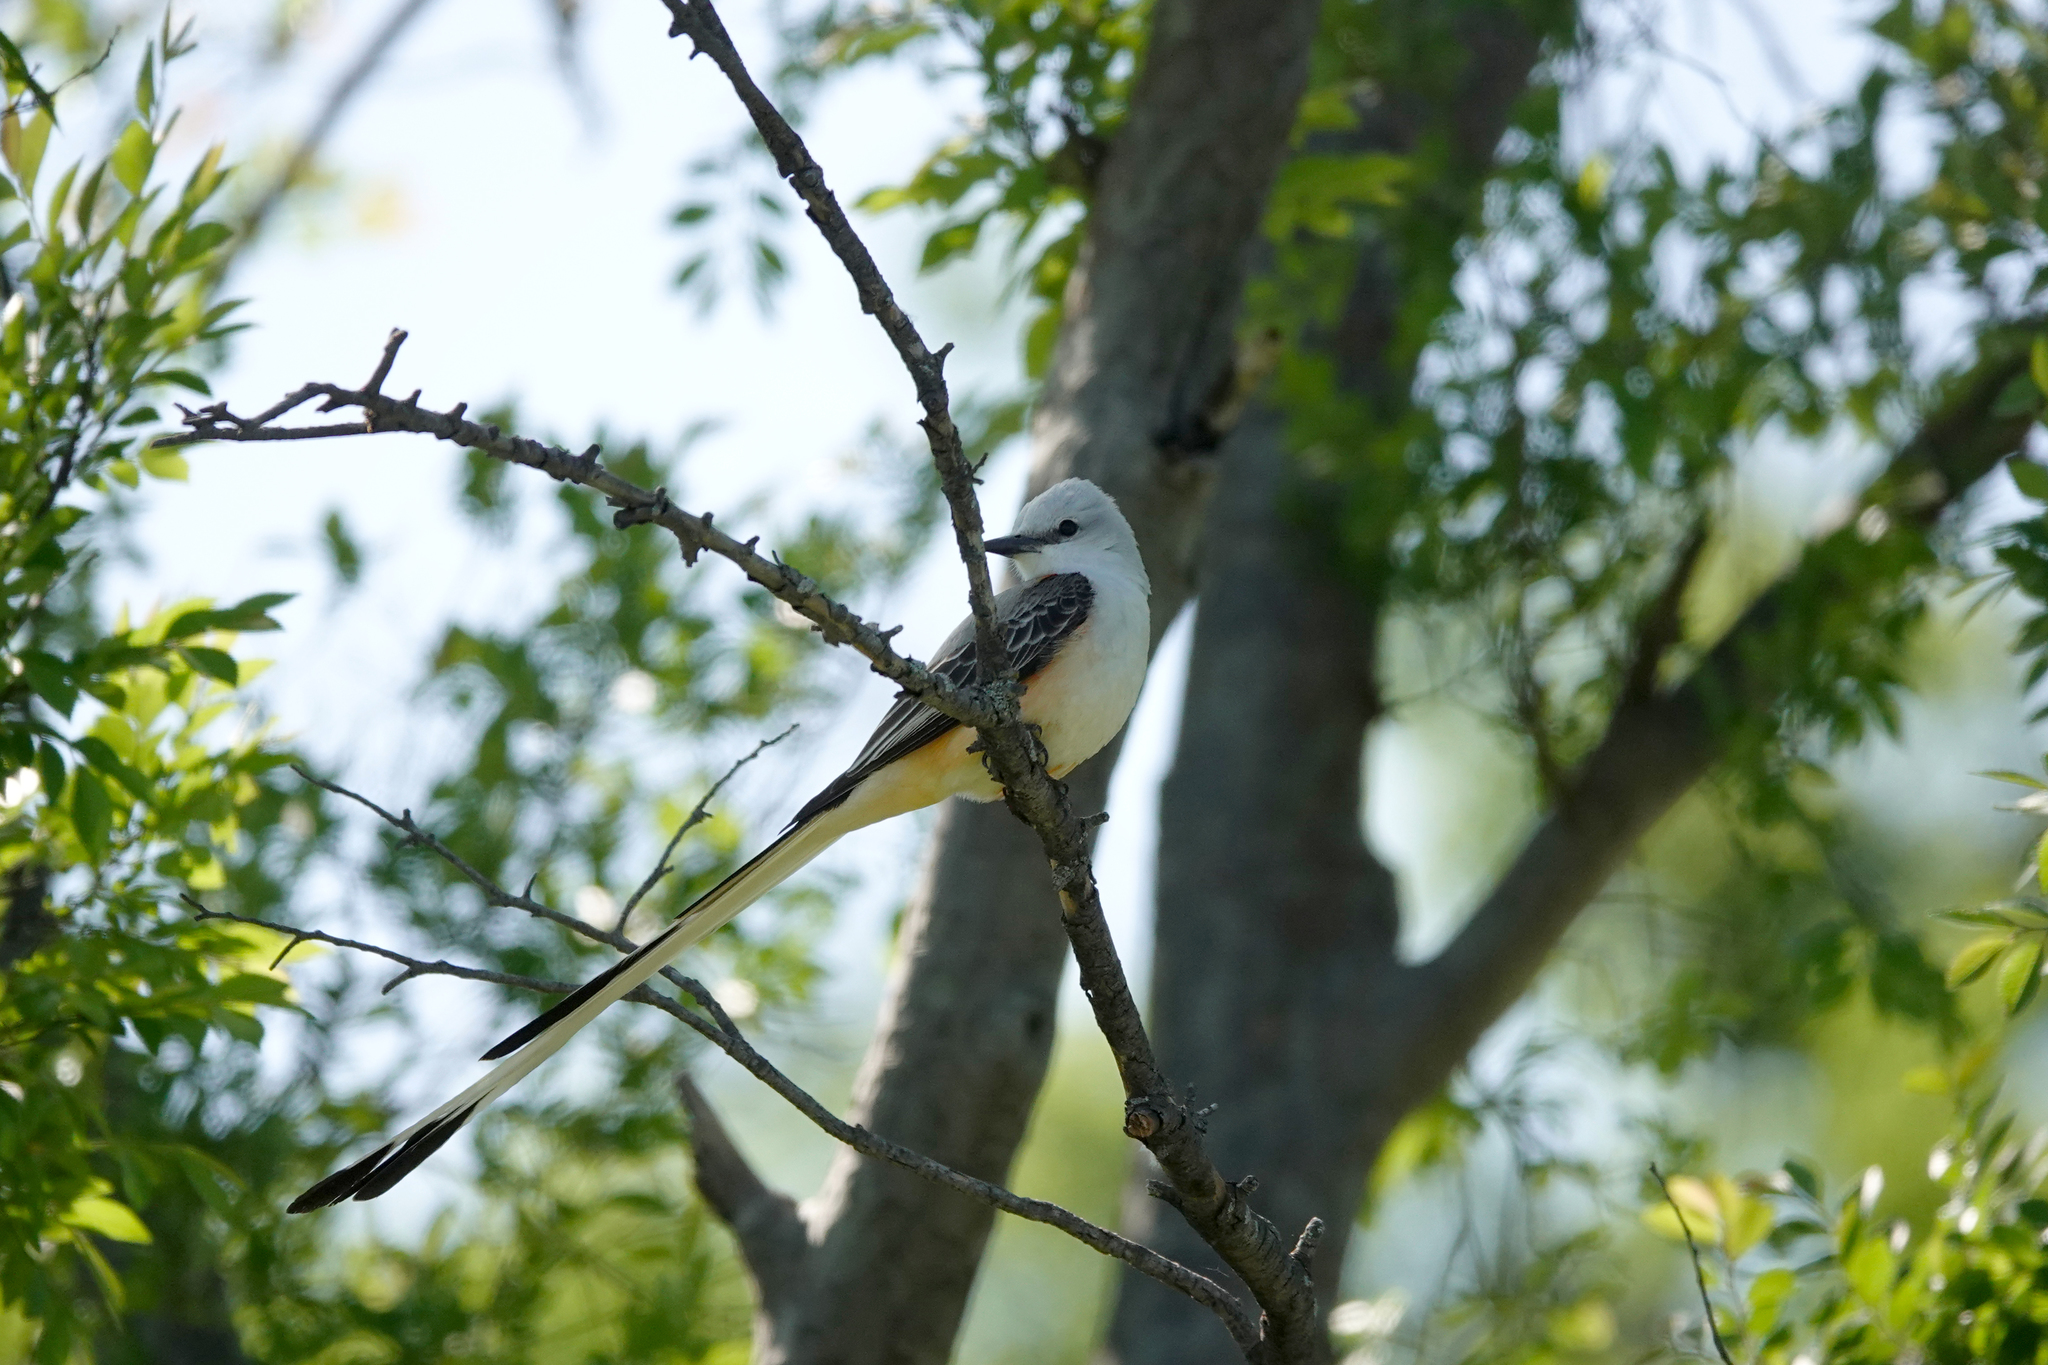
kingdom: Animalia
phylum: Chordata
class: Aves
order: Passeriformes
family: Tyrannidae
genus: Tyrannus
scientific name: Tyrannus forficatus
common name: Scissor-tailed flycatcher
